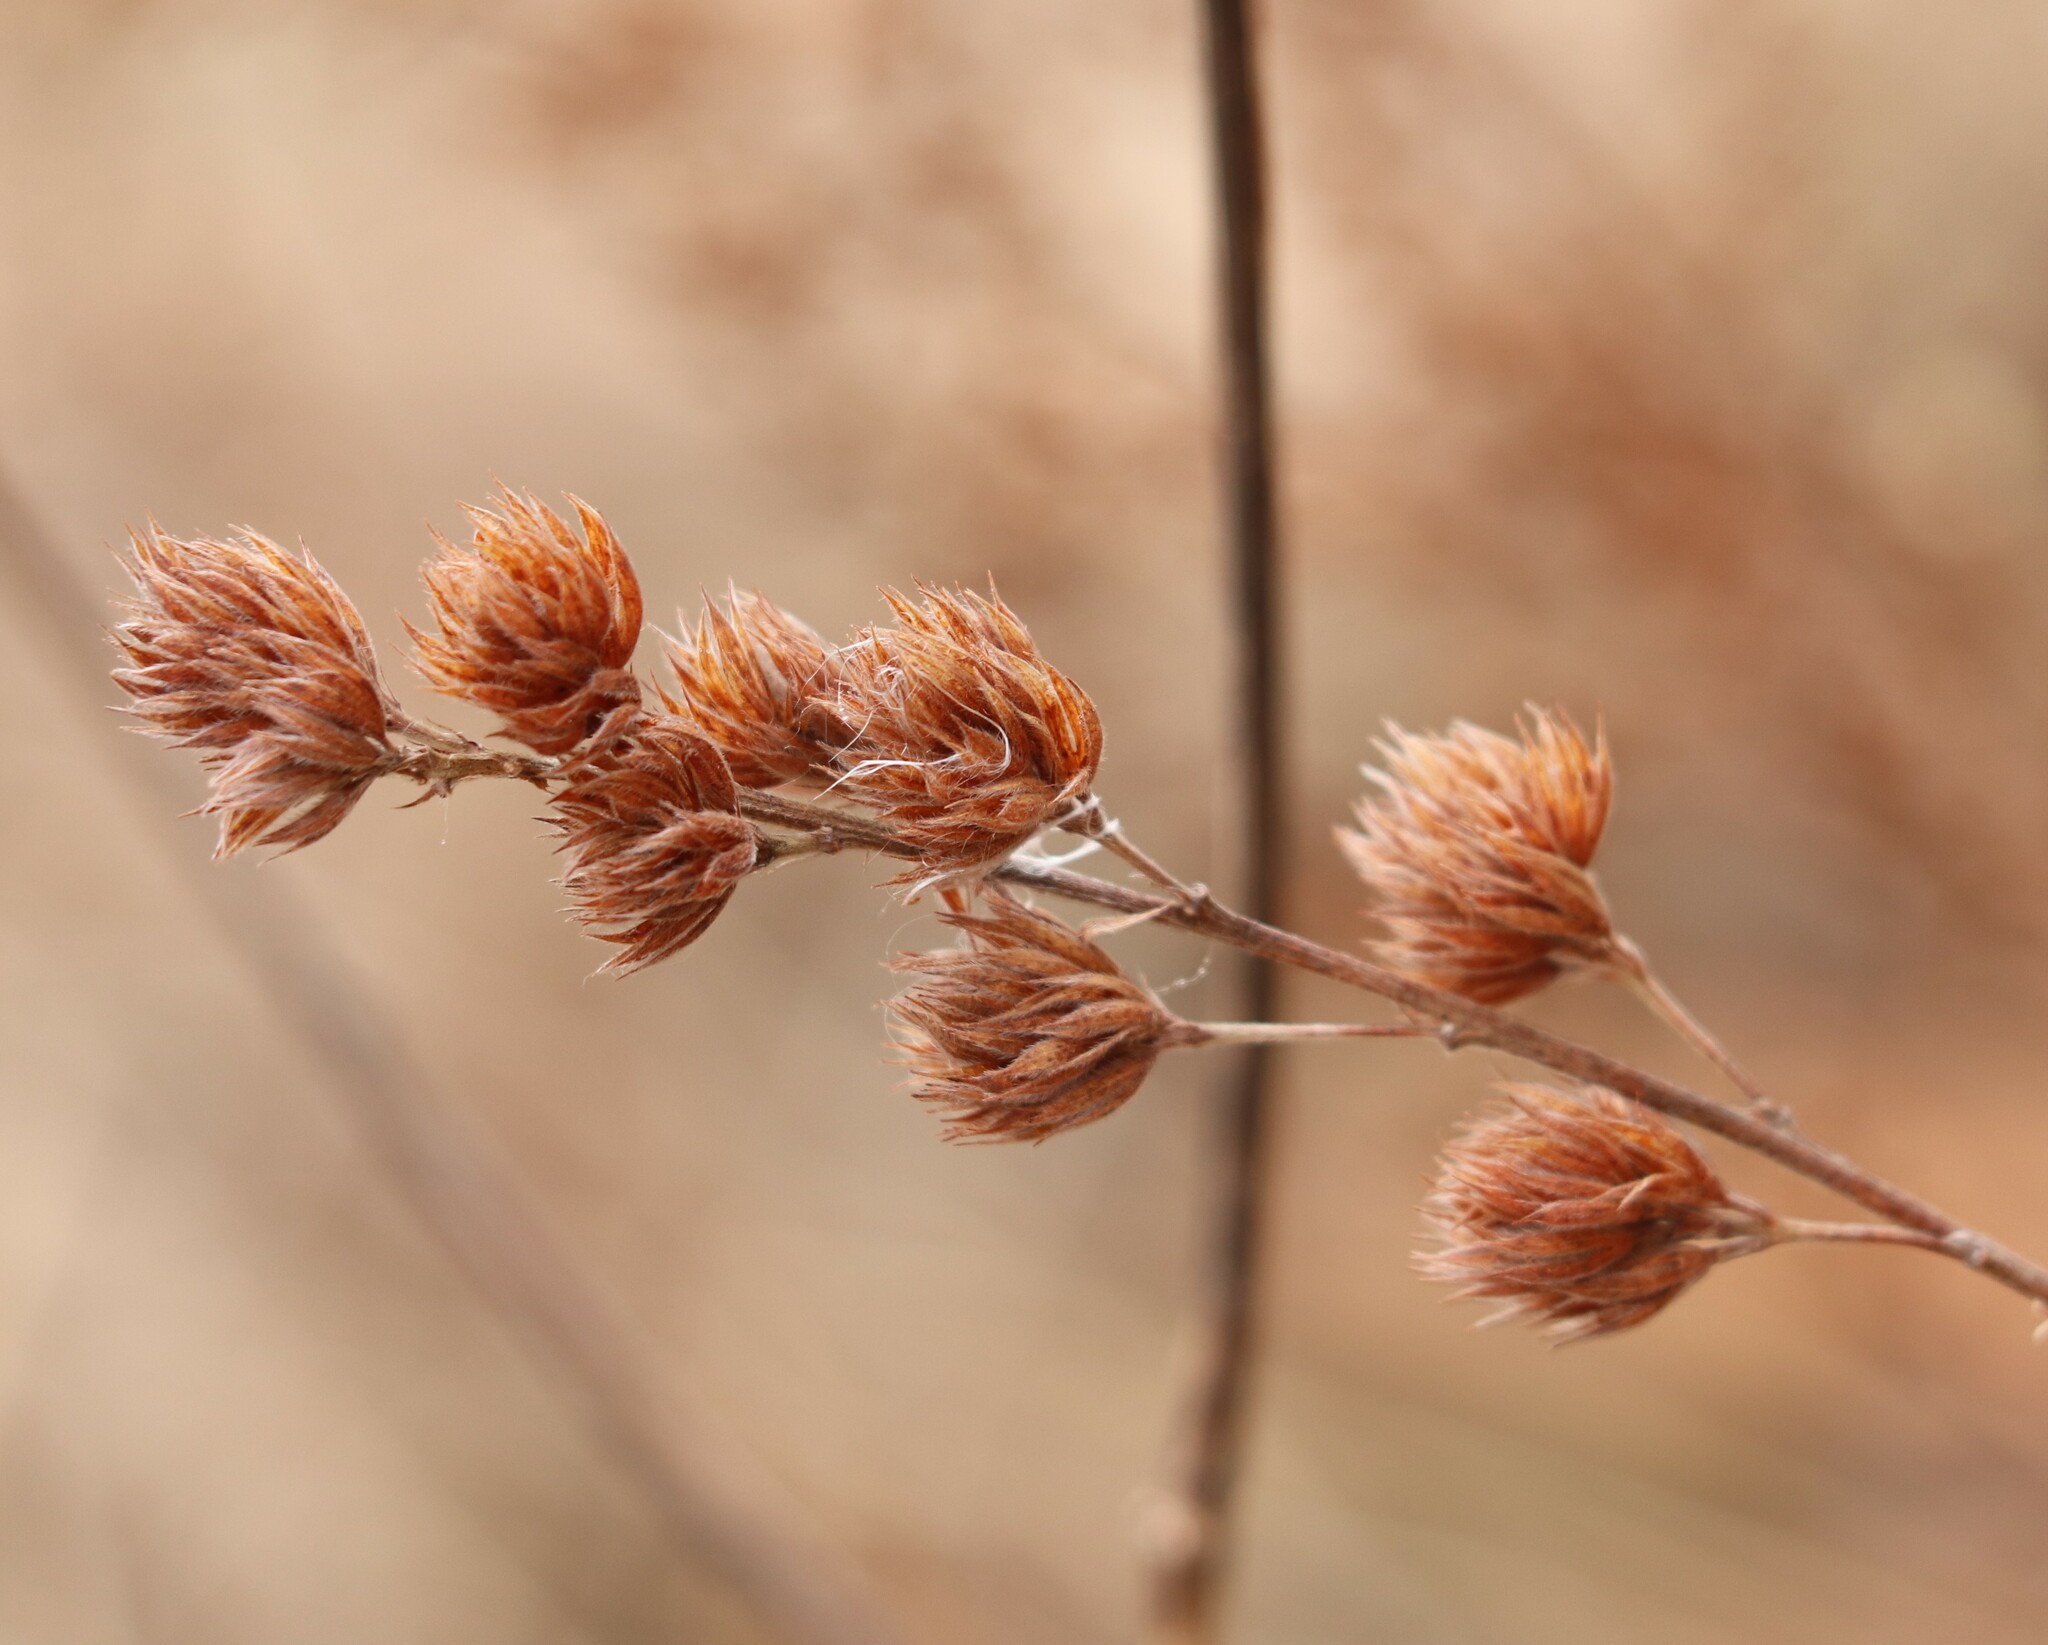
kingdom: Plantae
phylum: Tracheophyta
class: Magnoliopsida
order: Fabales
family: Fabaceae
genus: Lespedeza
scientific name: Lespedeza capitata
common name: Dusty clover
